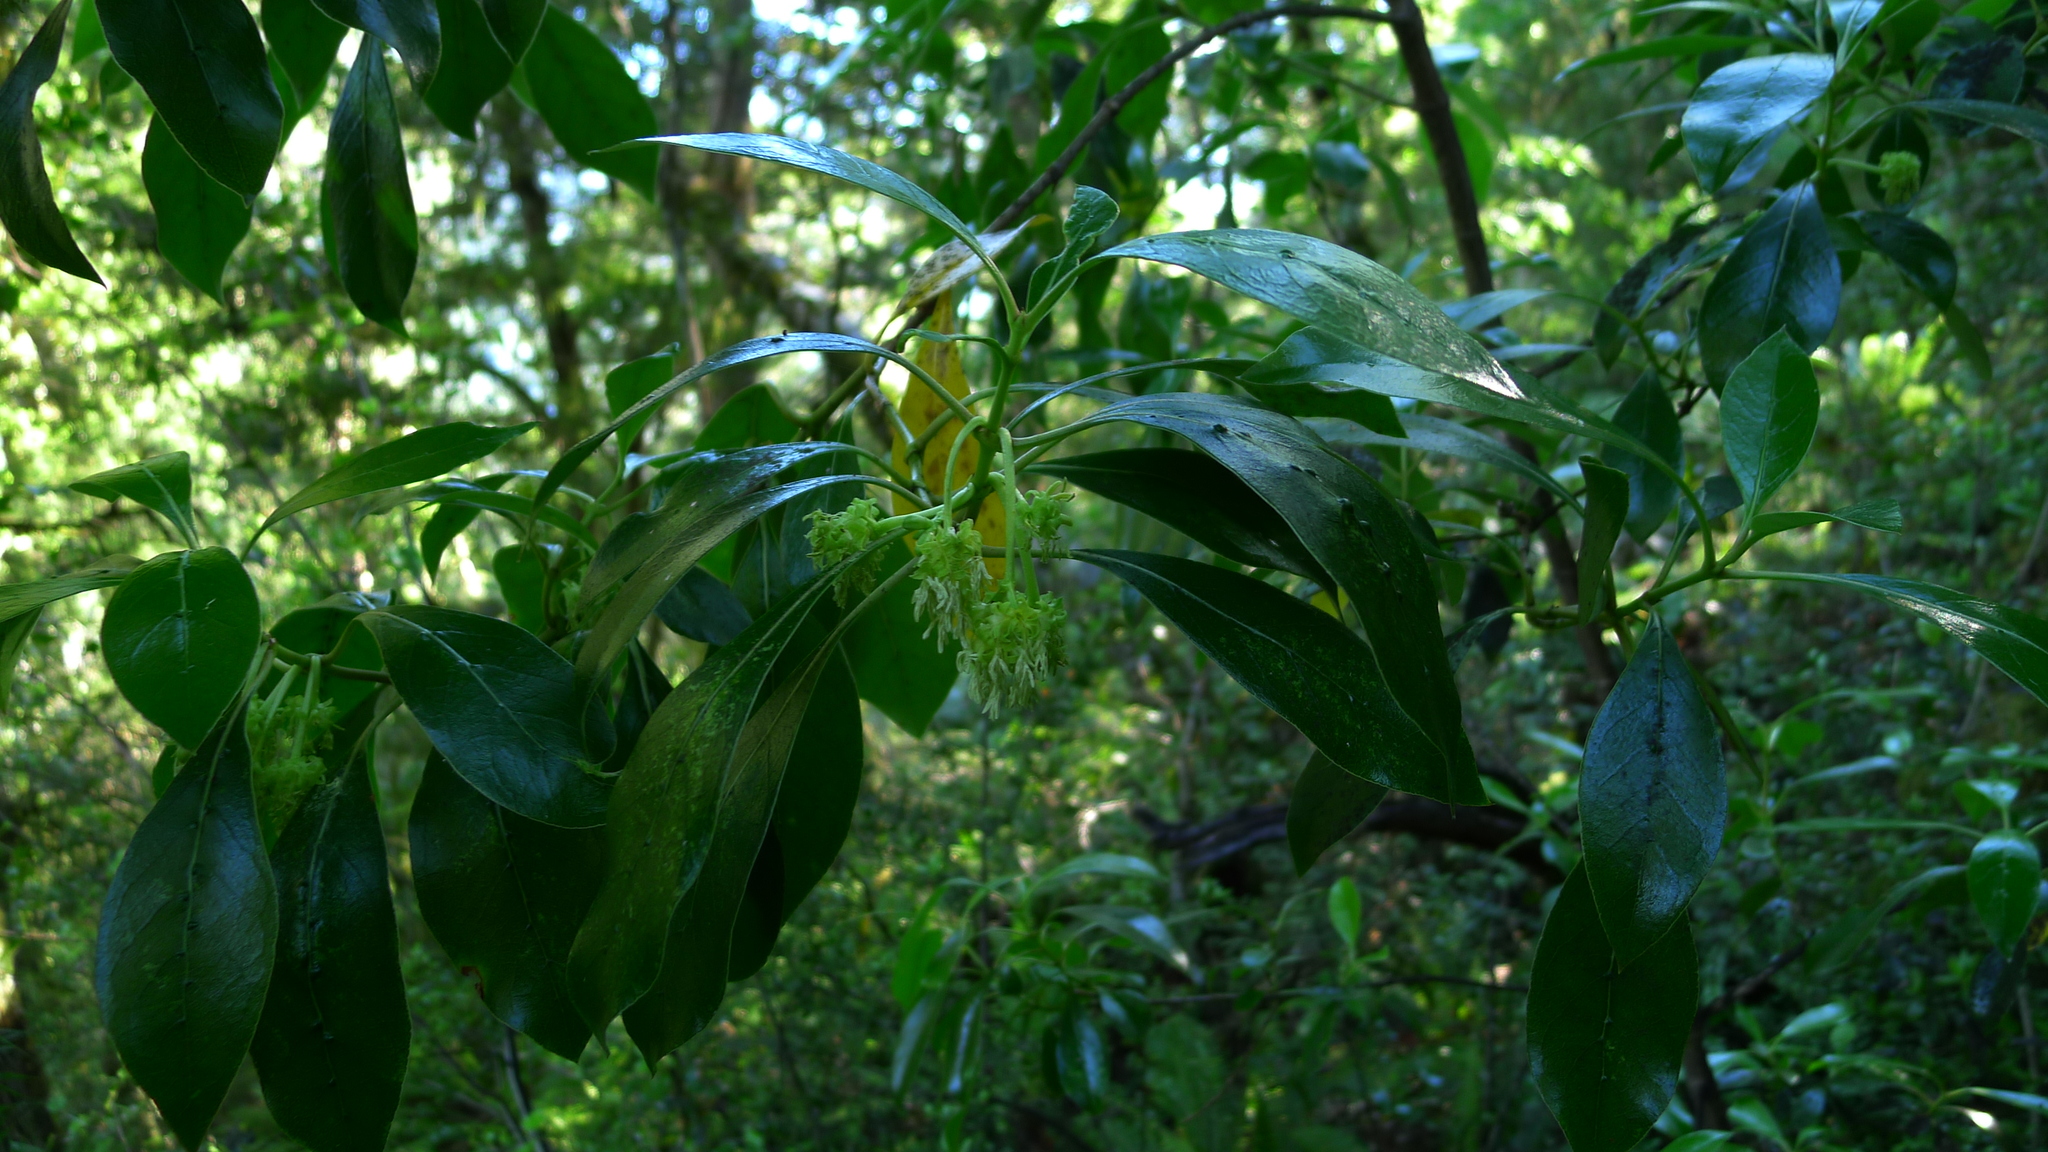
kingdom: Plantae
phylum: Tracheophyta
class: Magnoliopsida
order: Gentianales
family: Rubiaceae
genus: Coprosma
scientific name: Coprosma lucida
